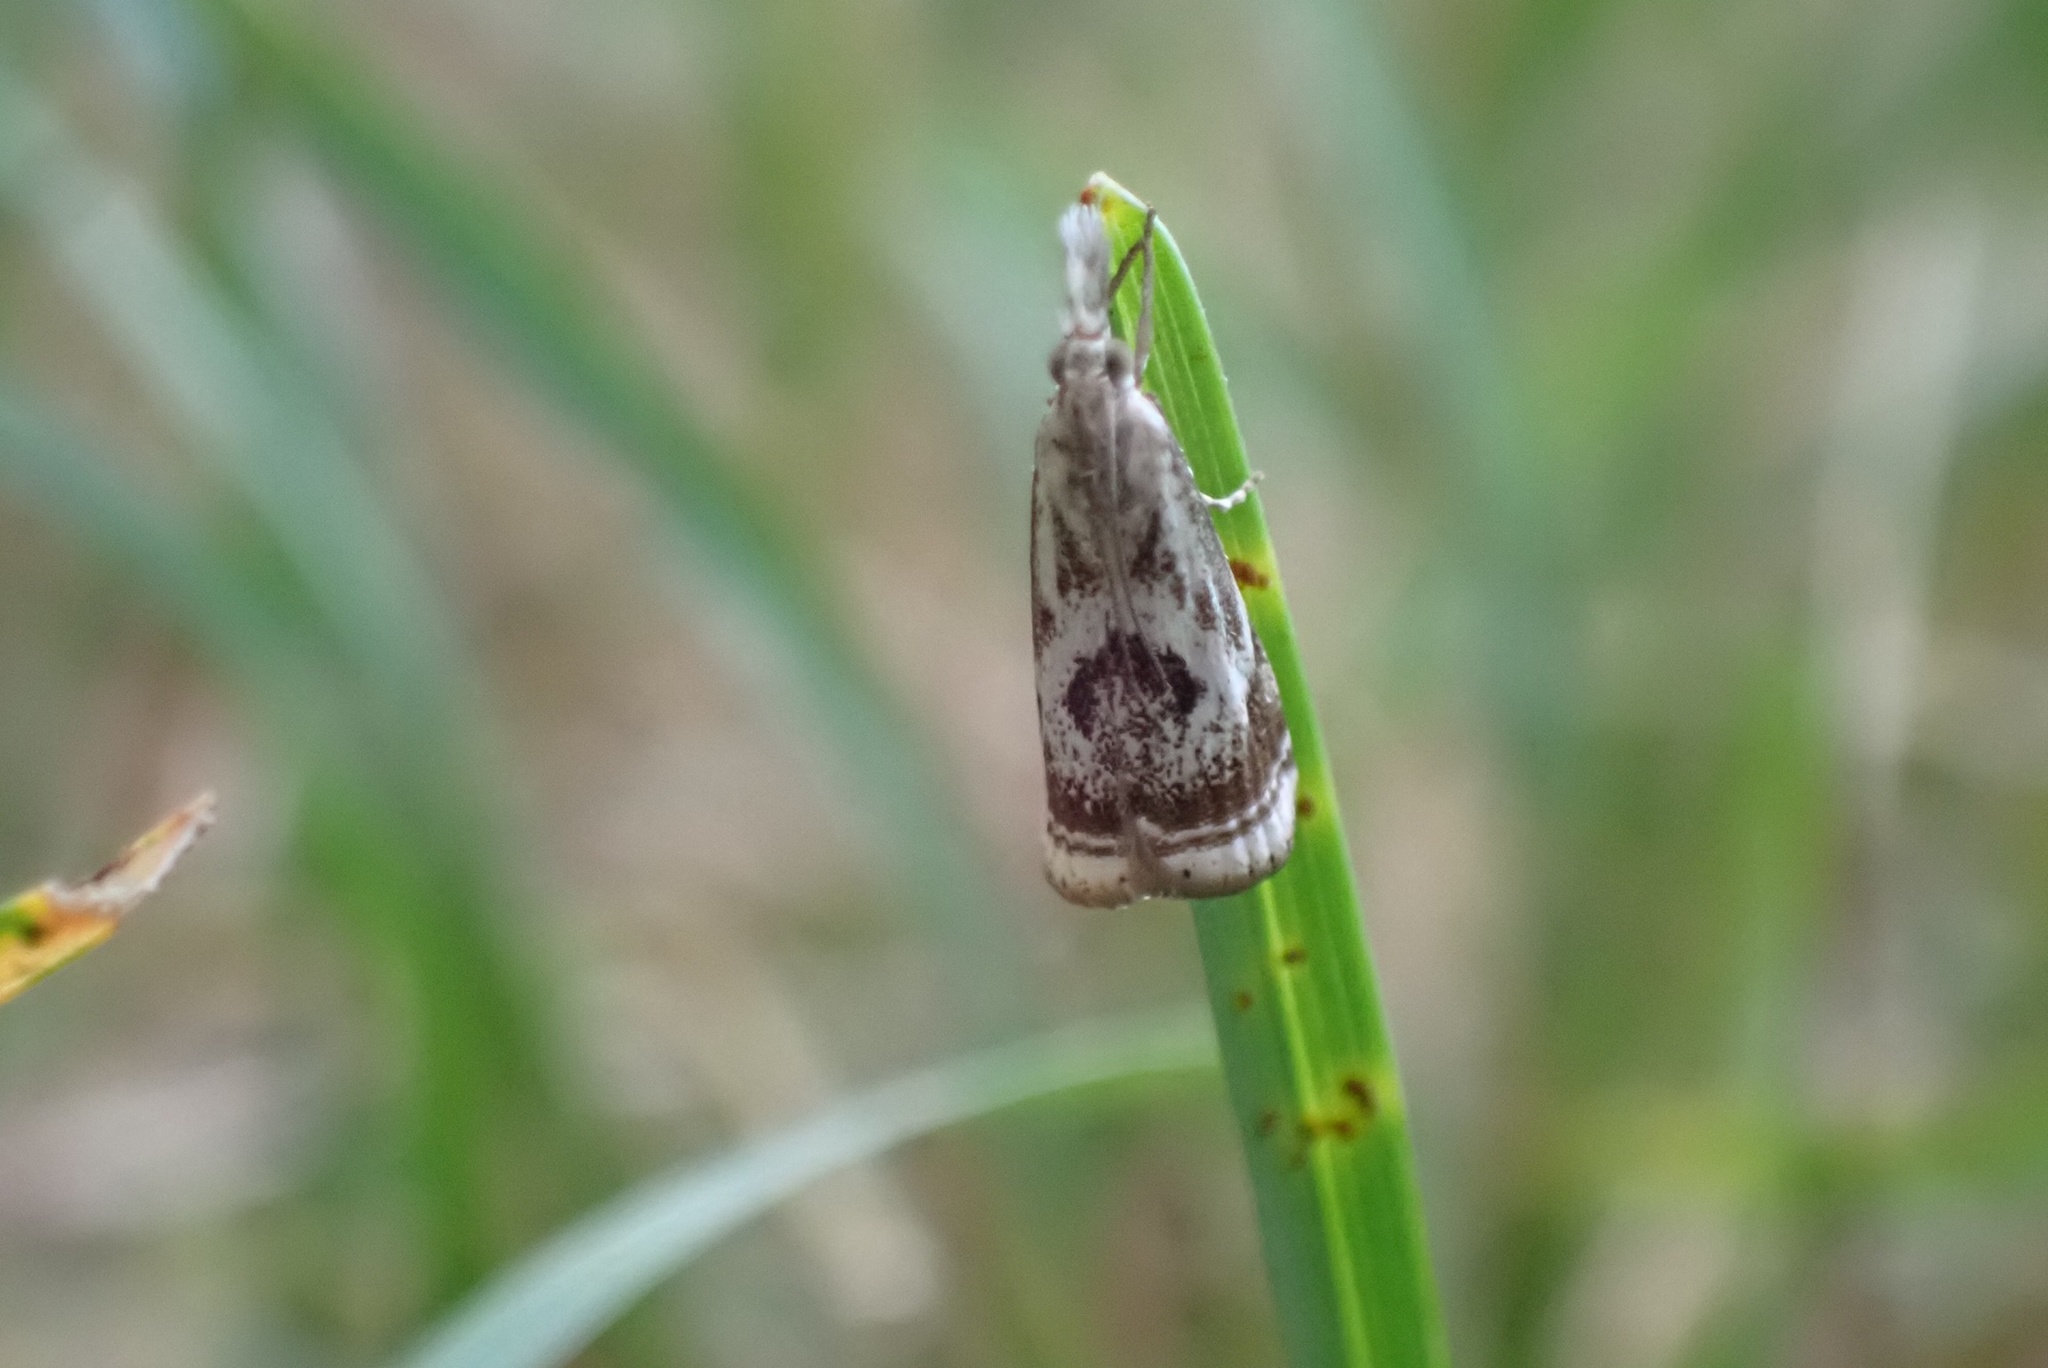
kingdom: Animalia
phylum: Arthropoda
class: Insecta
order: Lepidoptera
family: Crambidae
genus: Microcrambus
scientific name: Microcrambus elegans
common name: Elegant grass-veneer
